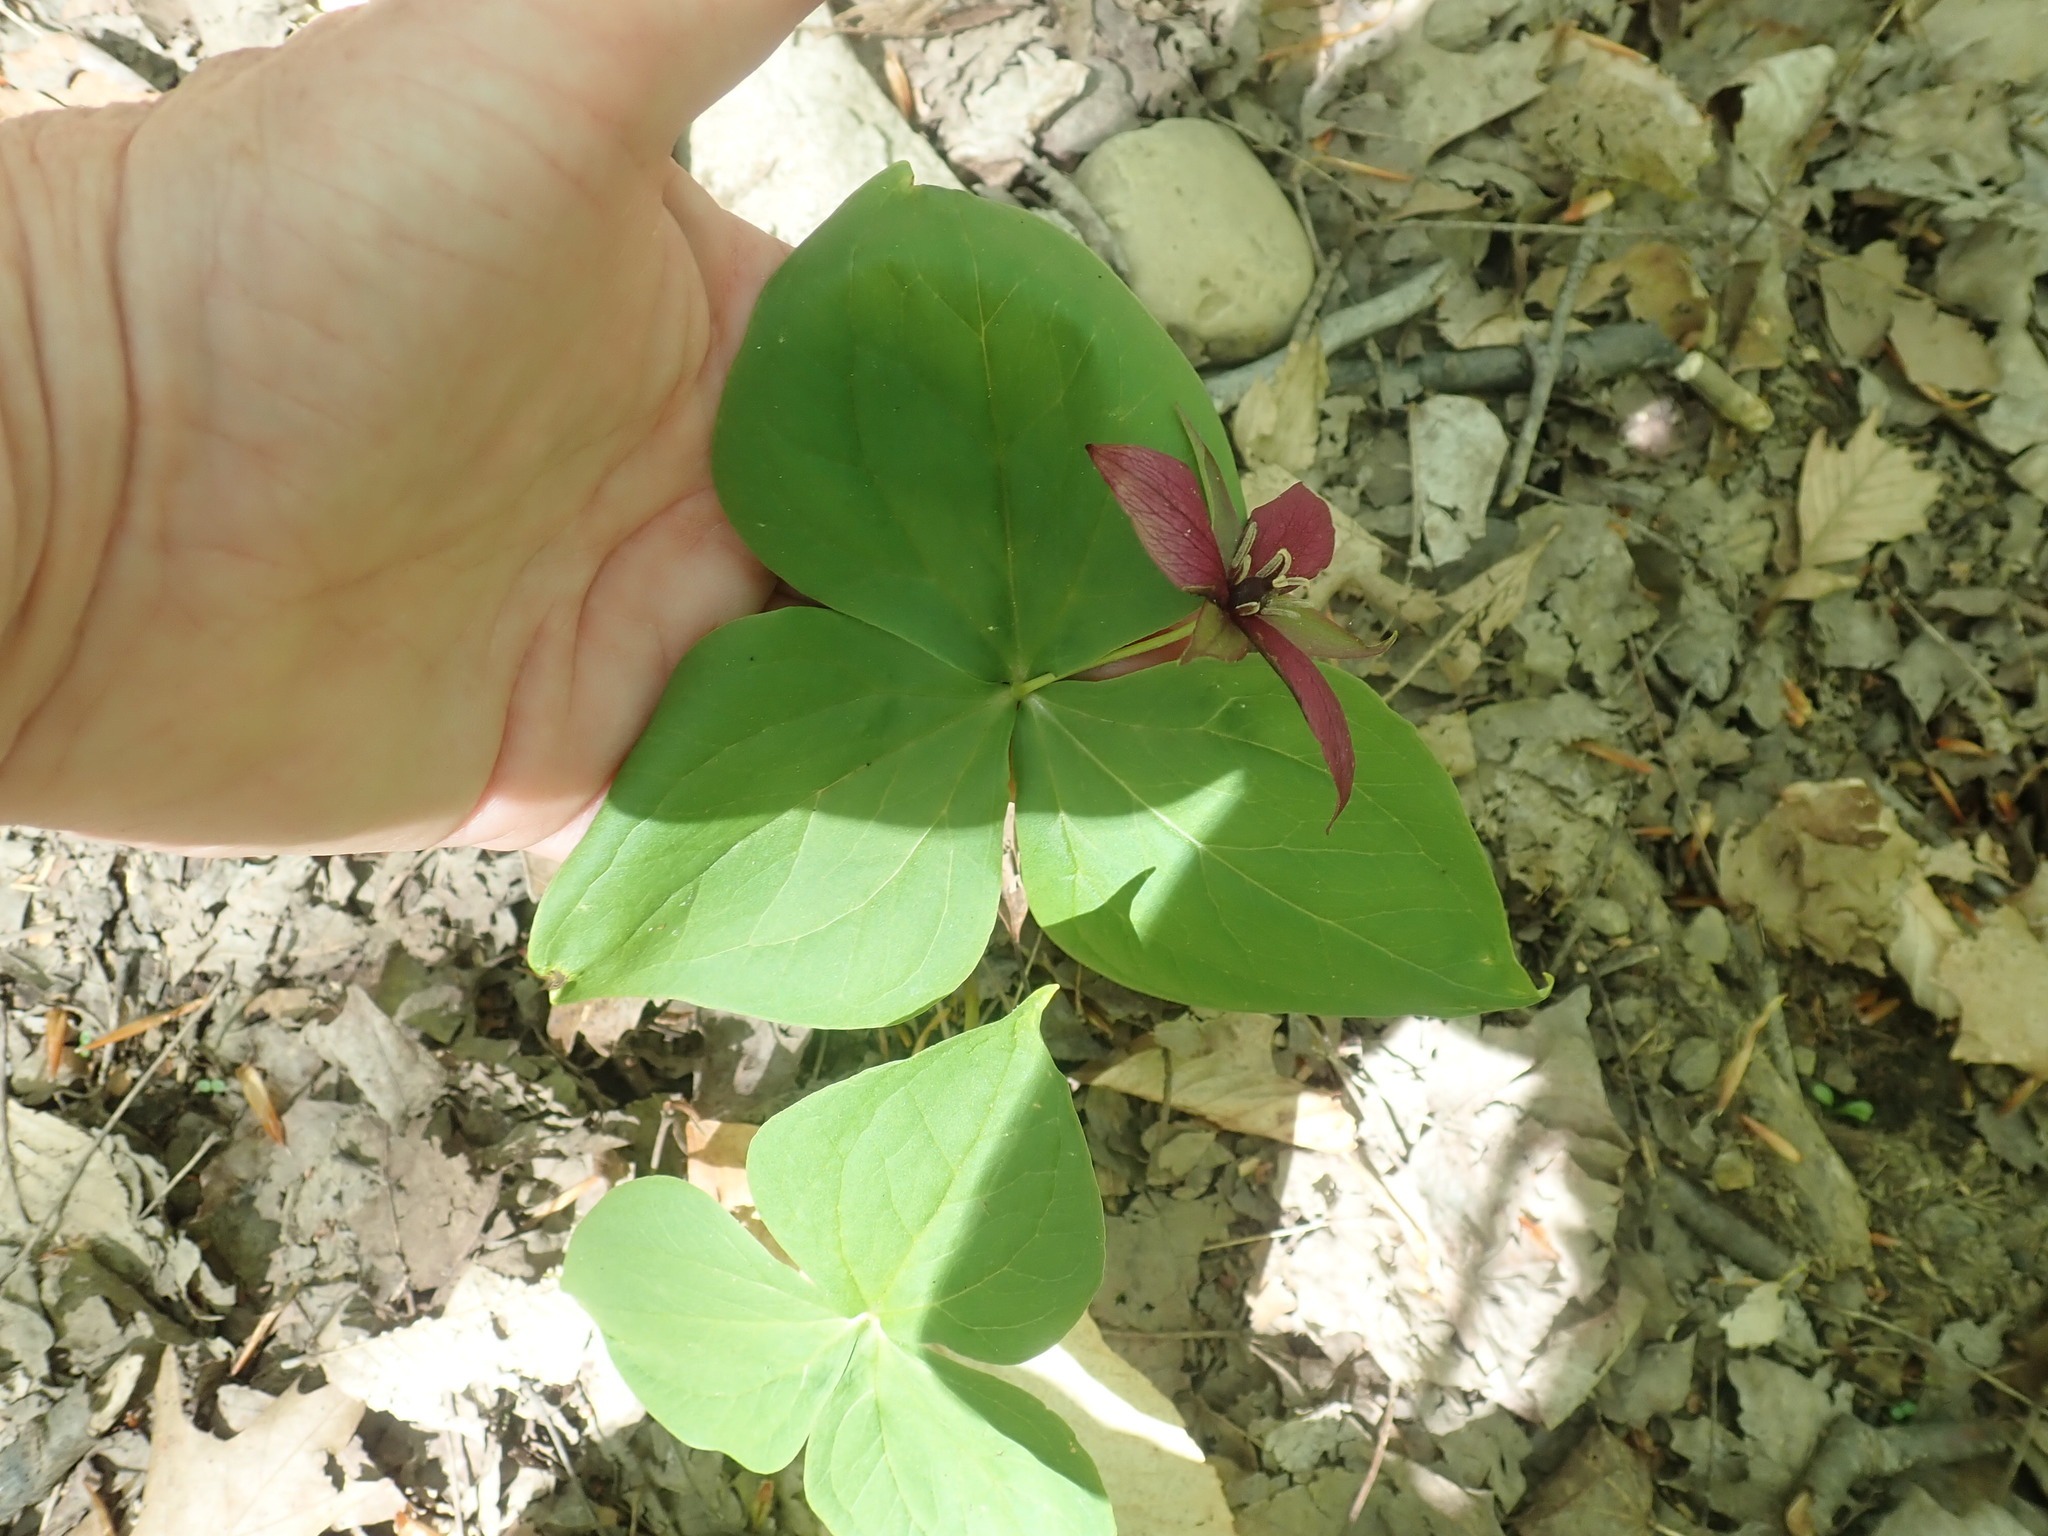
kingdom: Plantae
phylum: Tracheophyta
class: Liliopsida
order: Liliales
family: Melanthiaceae
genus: Trillium
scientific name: Trillium erectum
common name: Purple trillium
